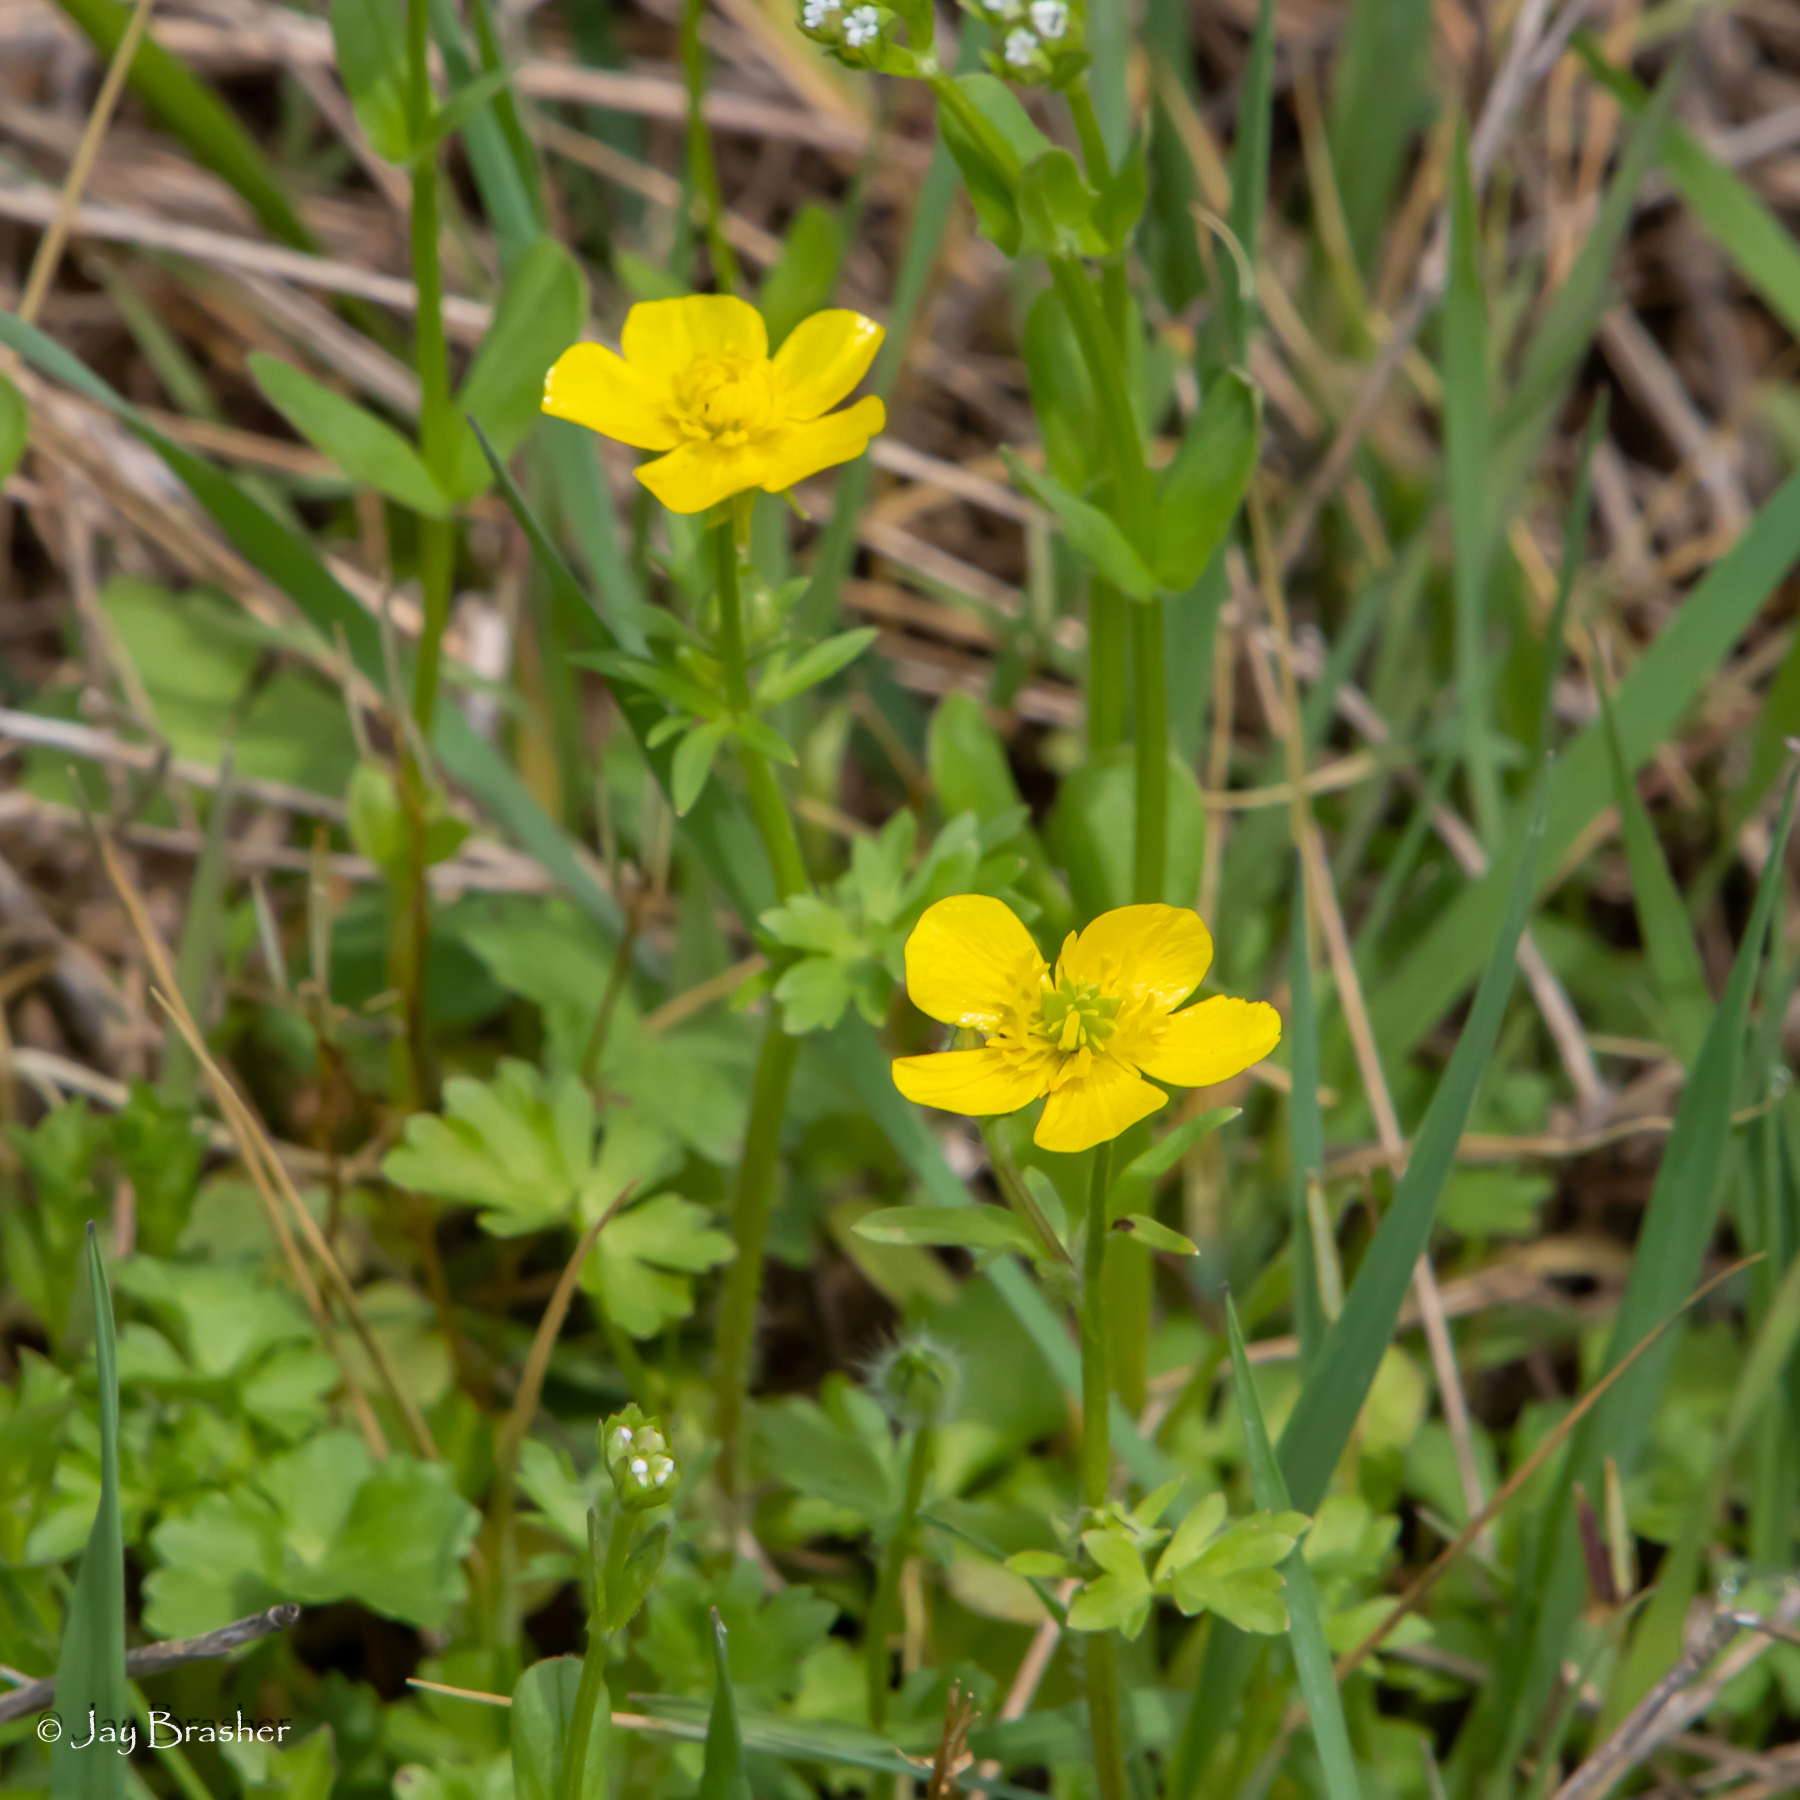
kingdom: Plantae
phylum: Tracheophyta
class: Magnoliopsida
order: Ranunculales
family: Ranunculaceae
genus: Ranunculus
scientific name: Ranunculus sardous
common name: Hairy buttercup
